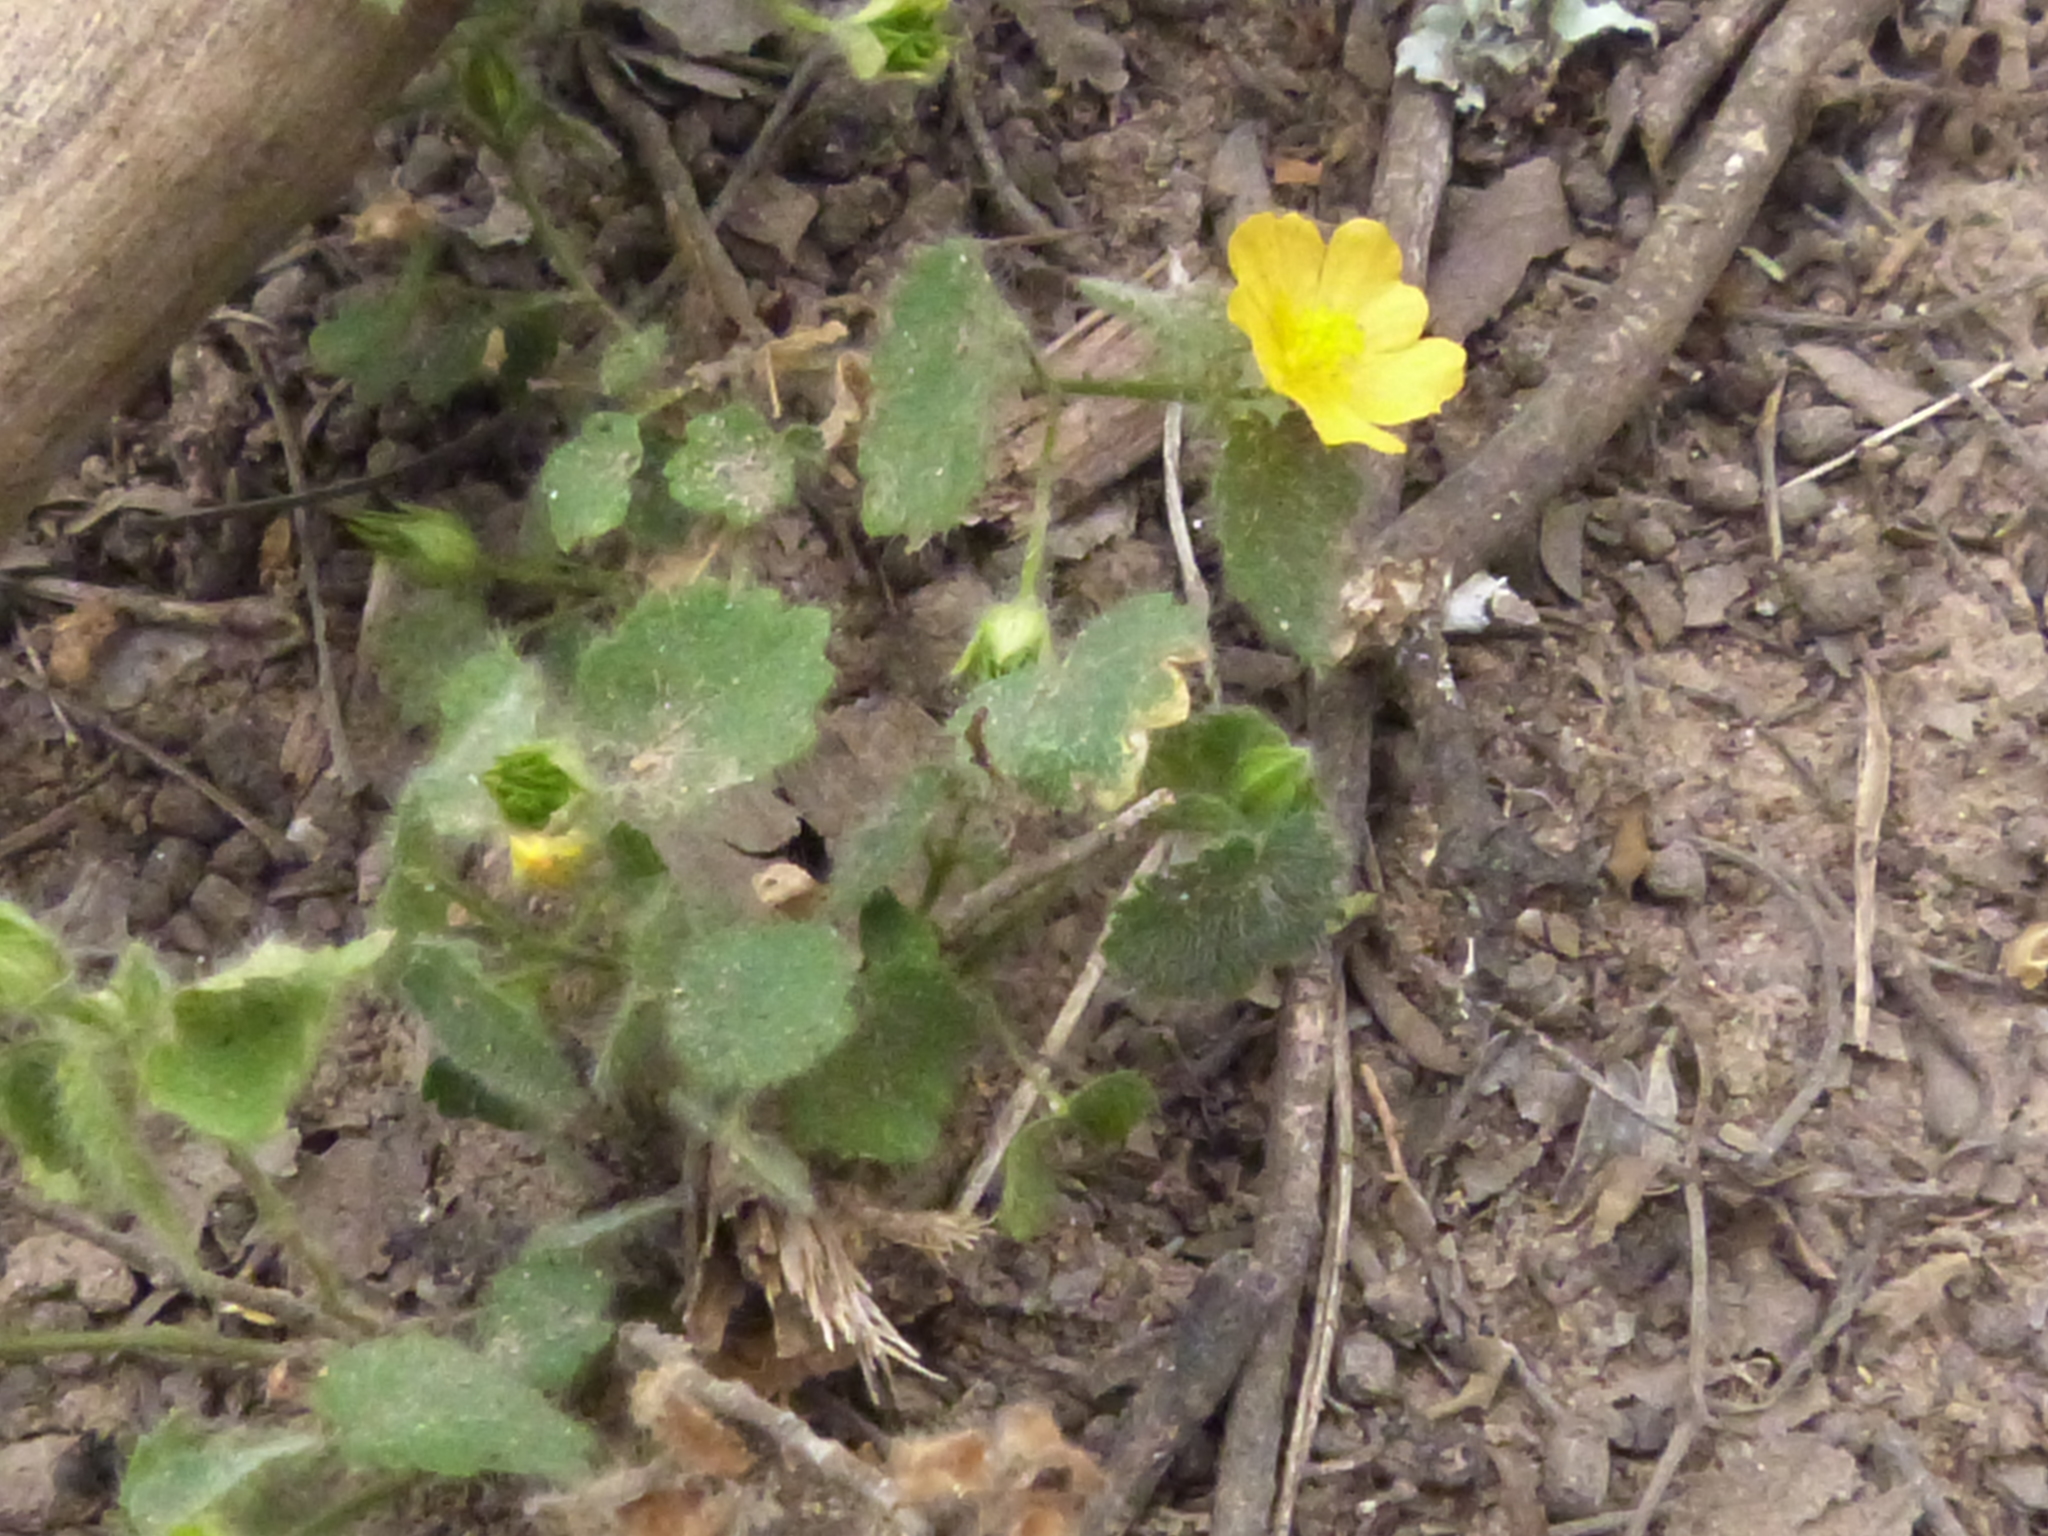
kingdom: Plantae
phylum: Tracheophyta
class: Magnoliopsida
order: Malvales
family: Malvaceae
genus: Sida
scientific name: Sida dictyocarpa
